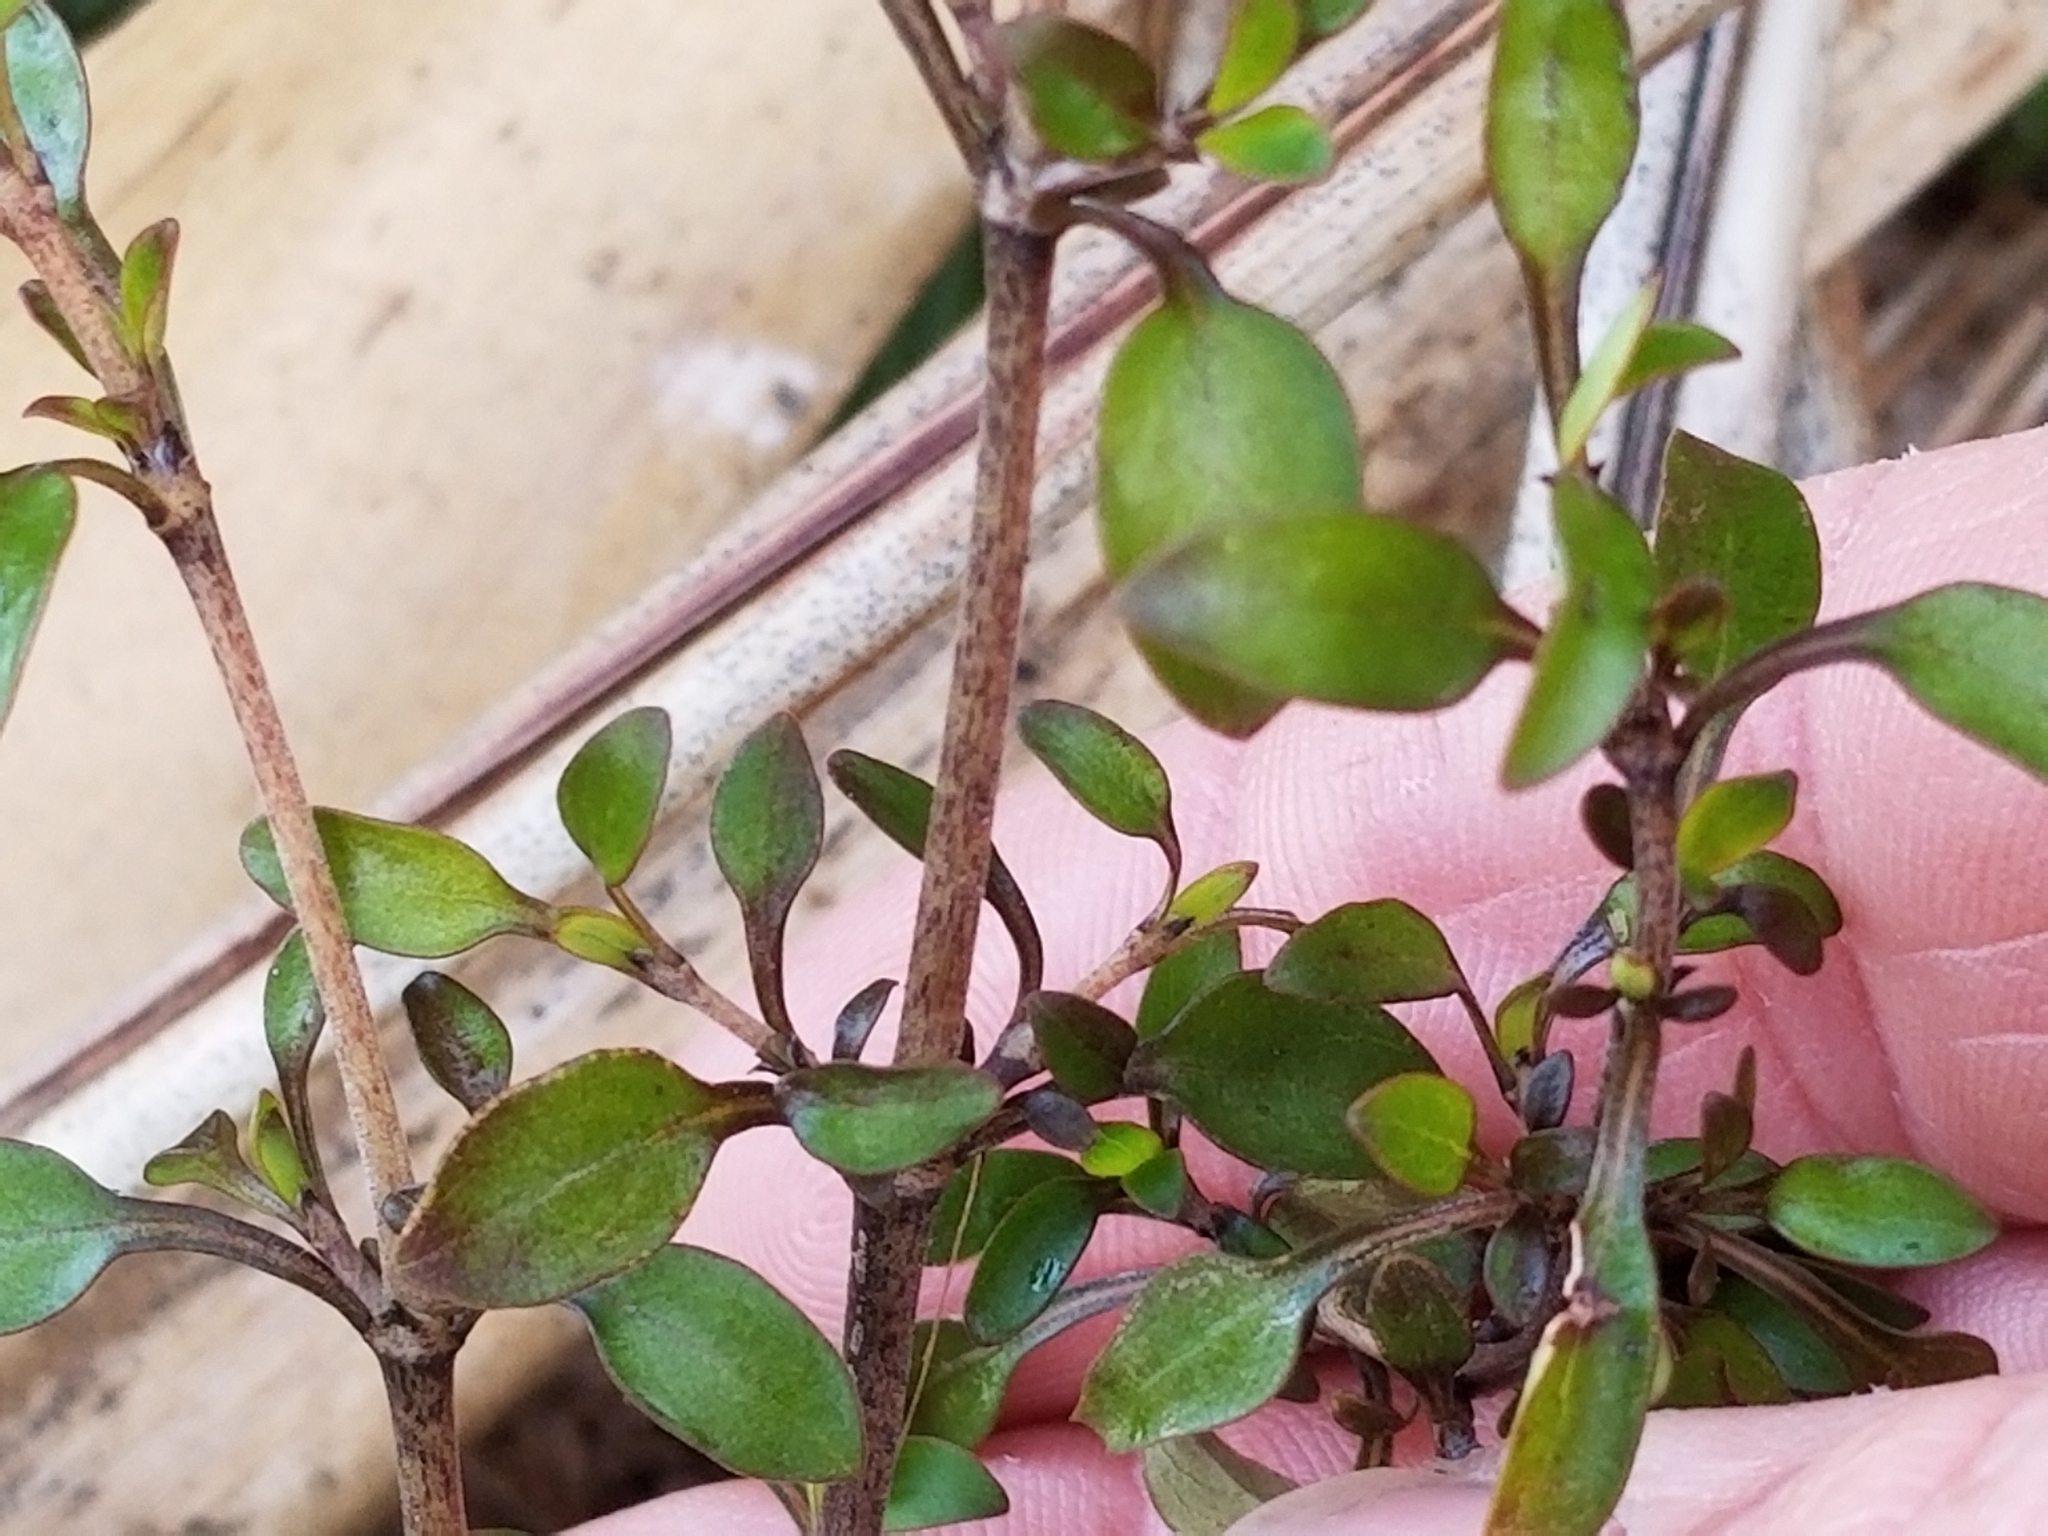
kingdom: Plantae
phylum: Tracheophyta
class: Magnoliopsida
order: Gentianales
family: Rubiaceae
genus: Coprosma
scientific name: Coprosma propinqua
